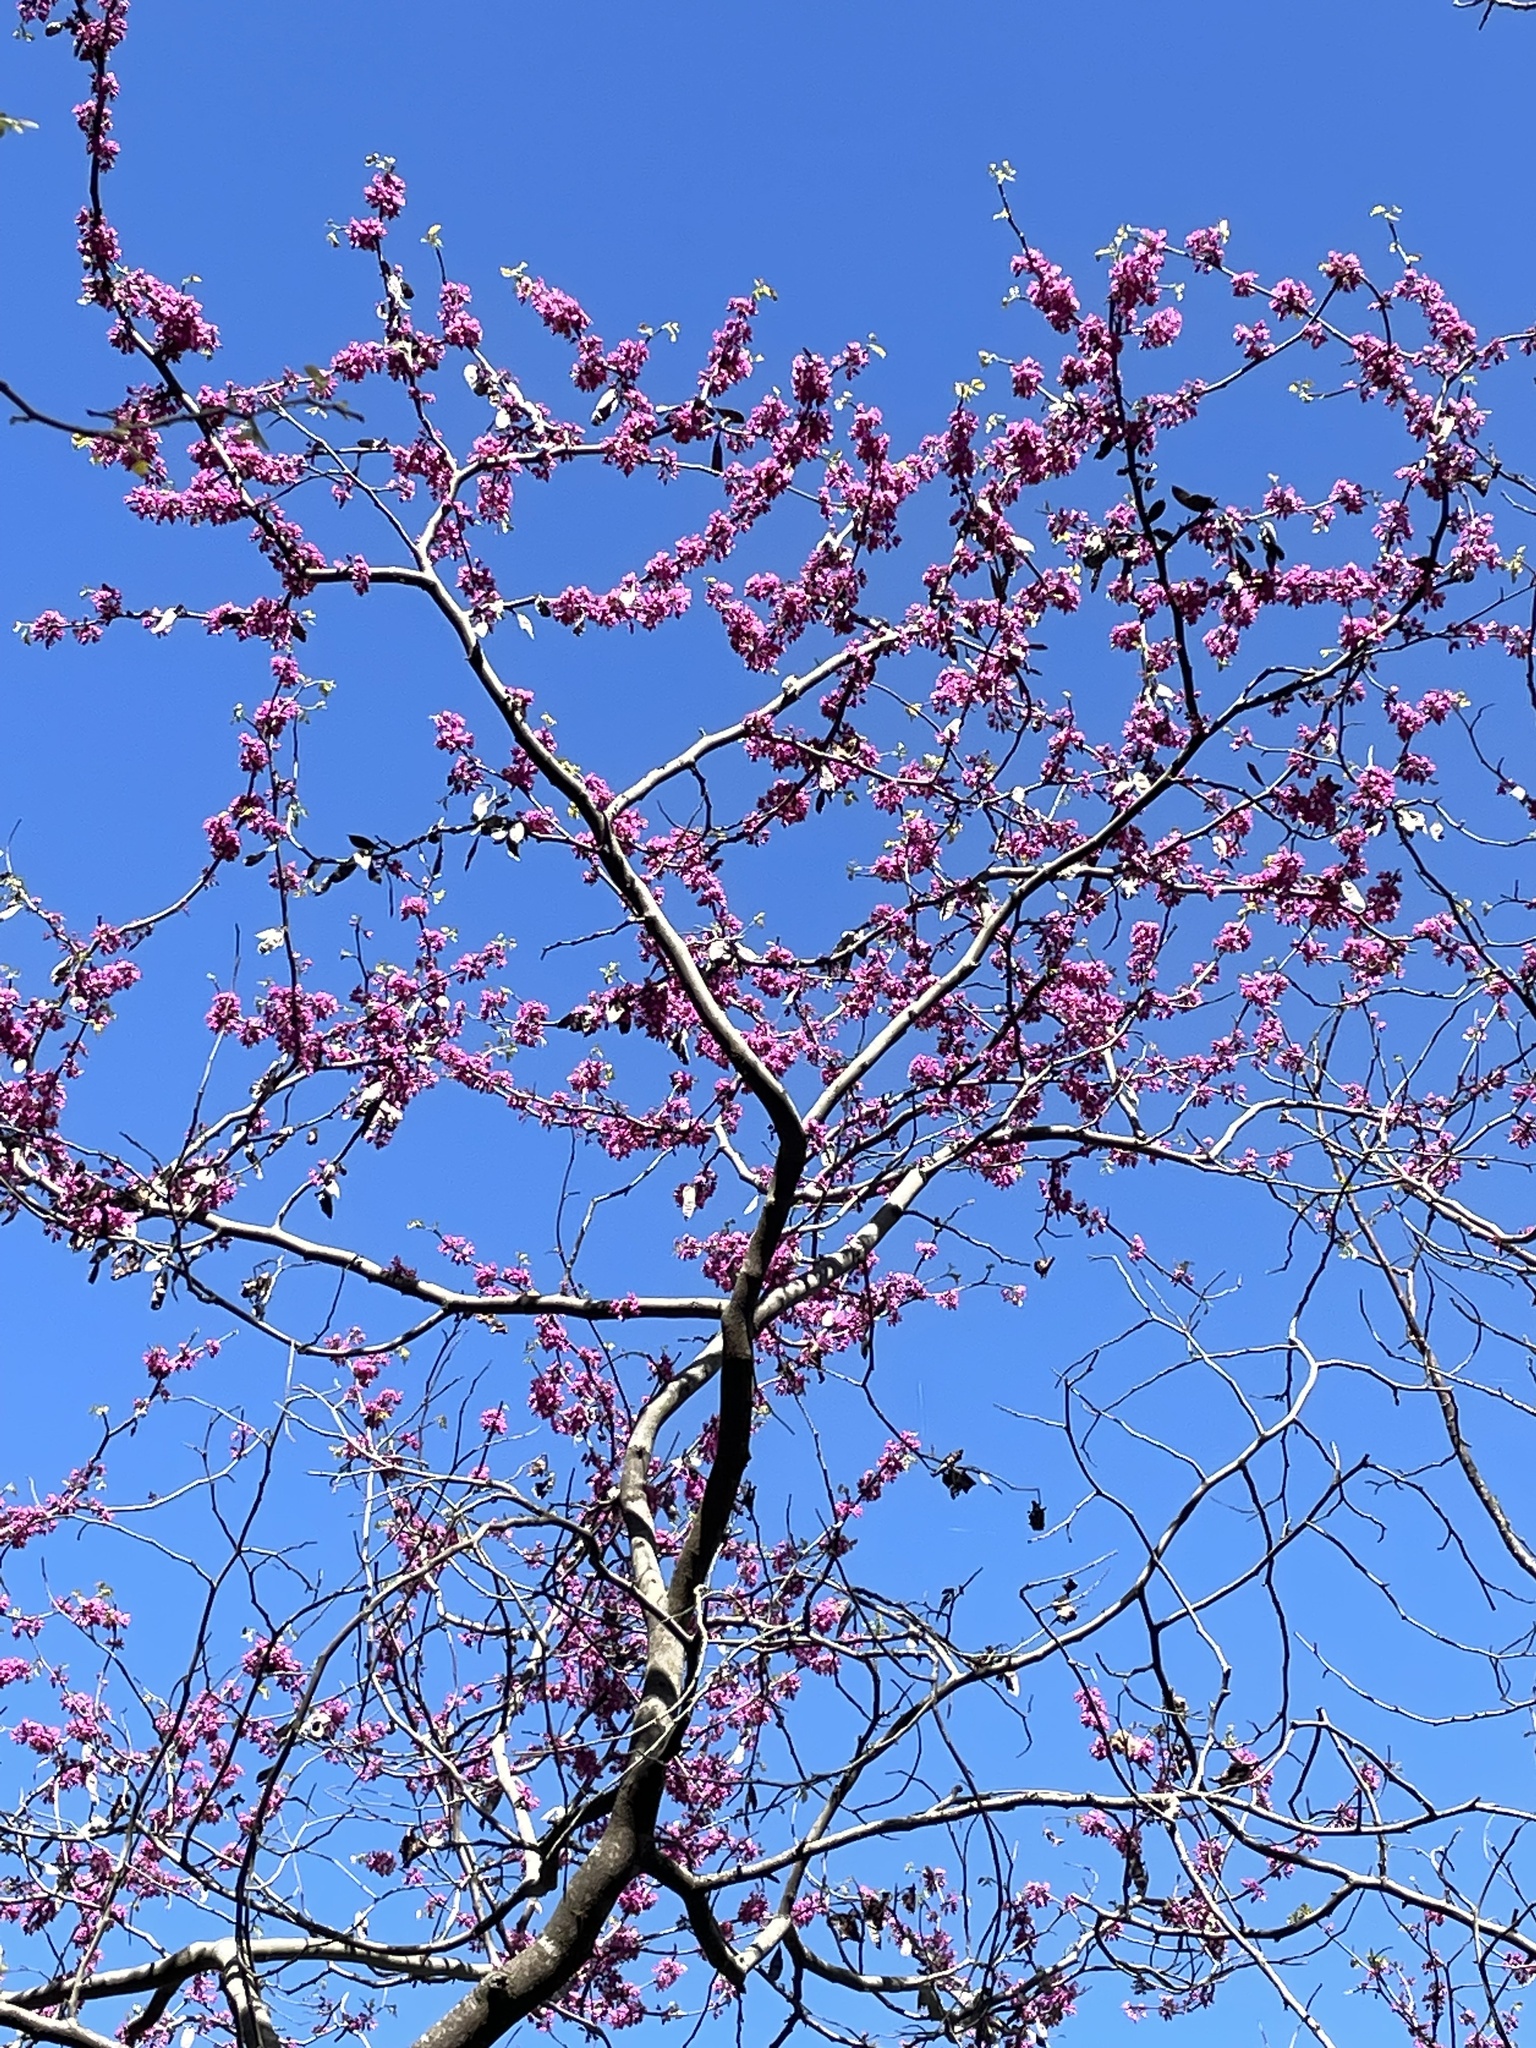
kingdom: Plantae
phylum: Tracheophyta
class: Magnoliopsida
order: Fabales
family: Fabaceae
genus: Cercis
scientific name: Cercis canadensis
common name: Eastern redbud
